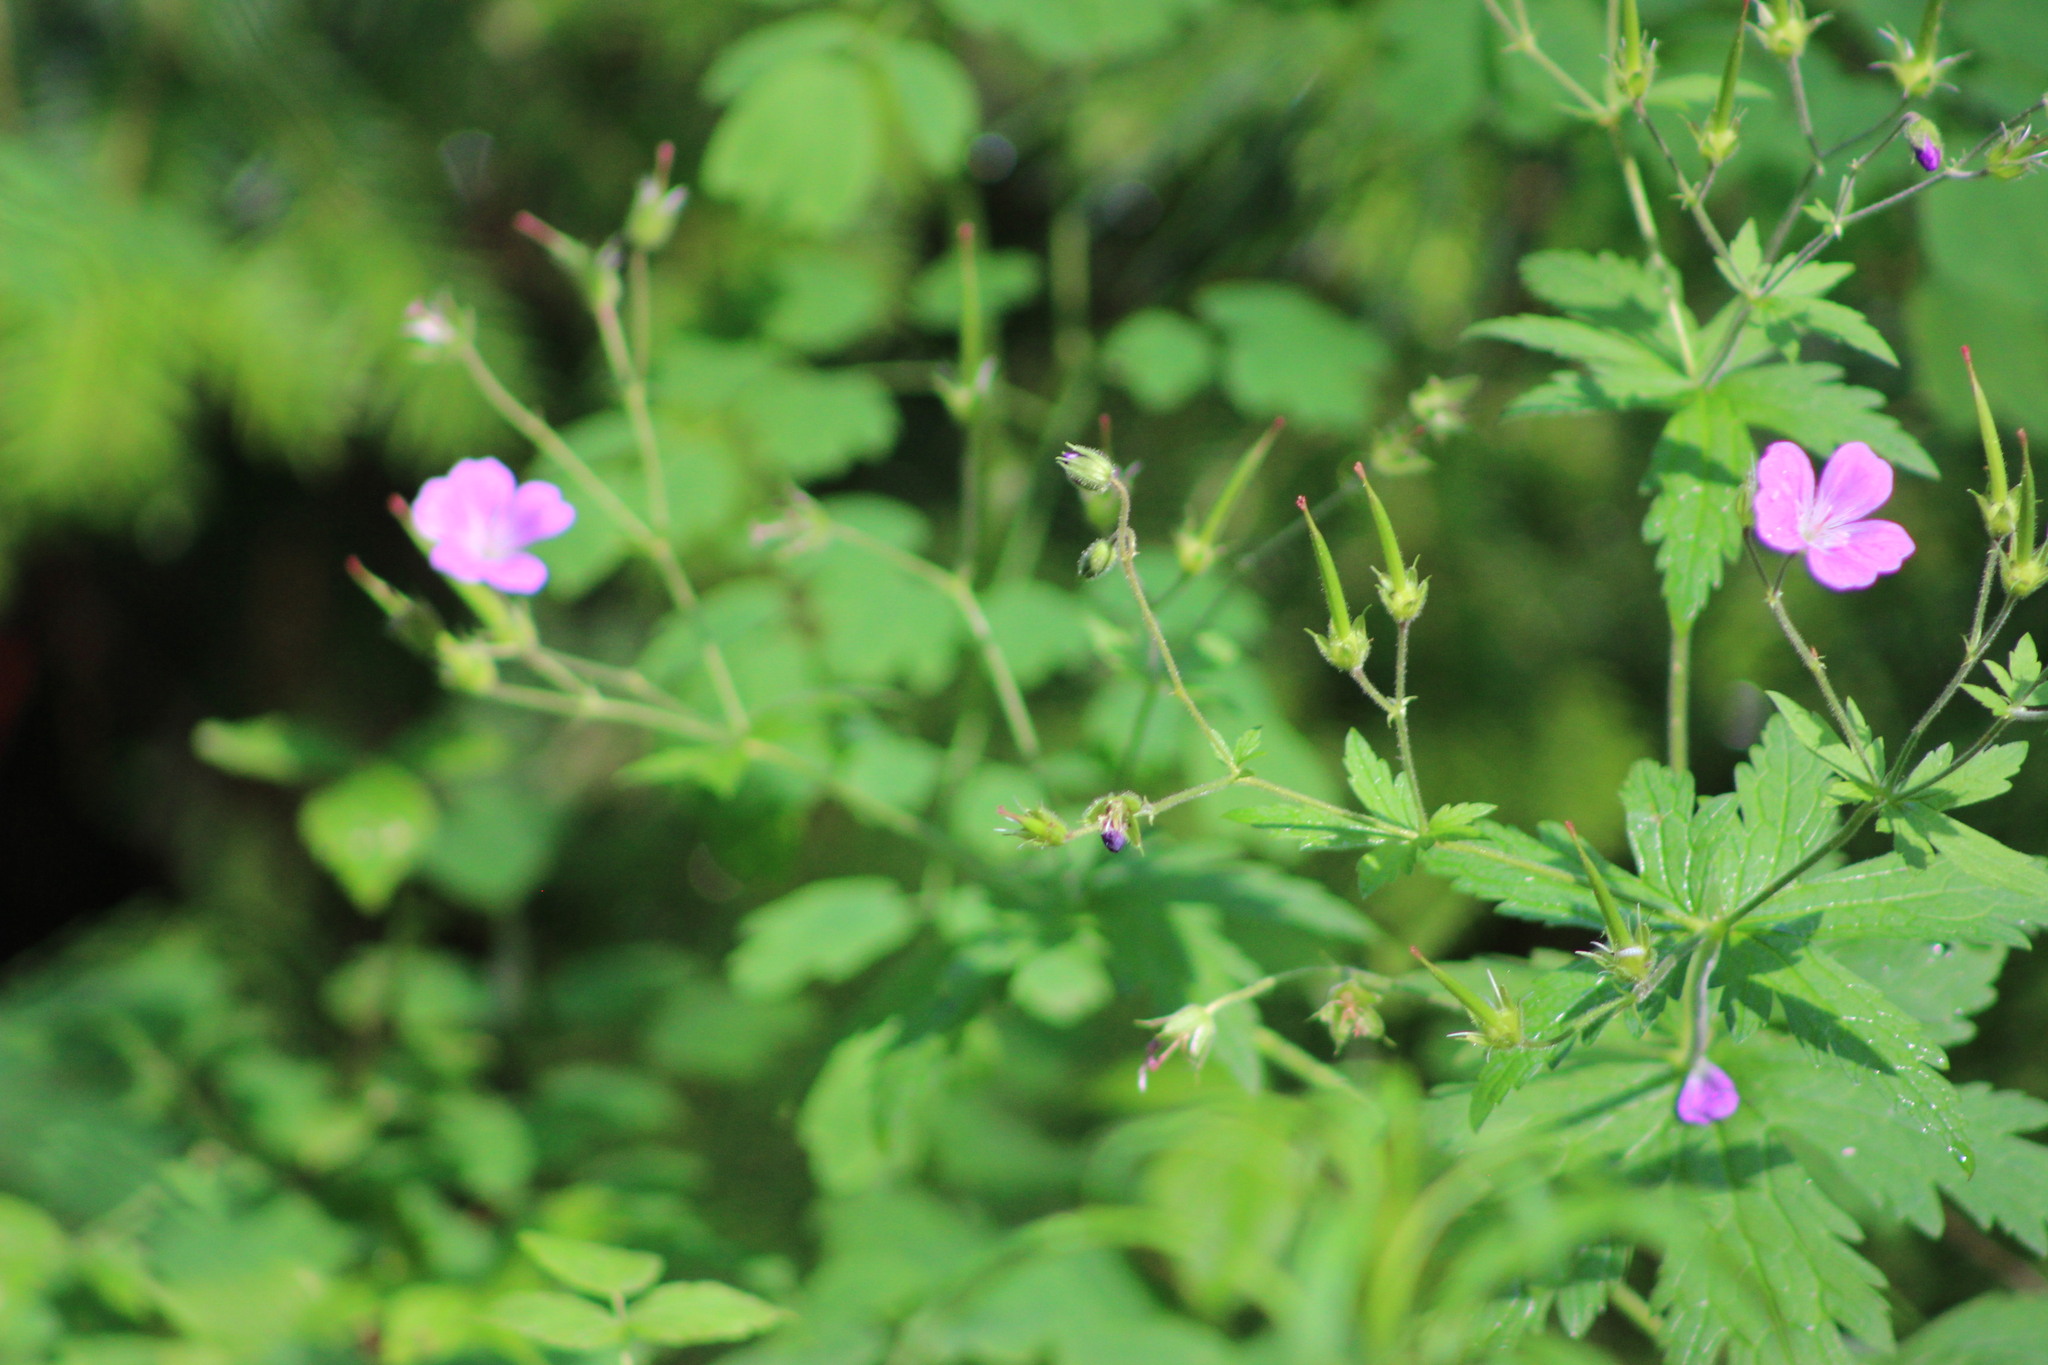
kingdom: Plantae
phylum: Tracheophyta
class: Magnoliopsida
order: Geraniales
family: Geraniaceae
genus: Geranium
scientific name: Geranium sylvaticum
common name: Wood crane's-bill
